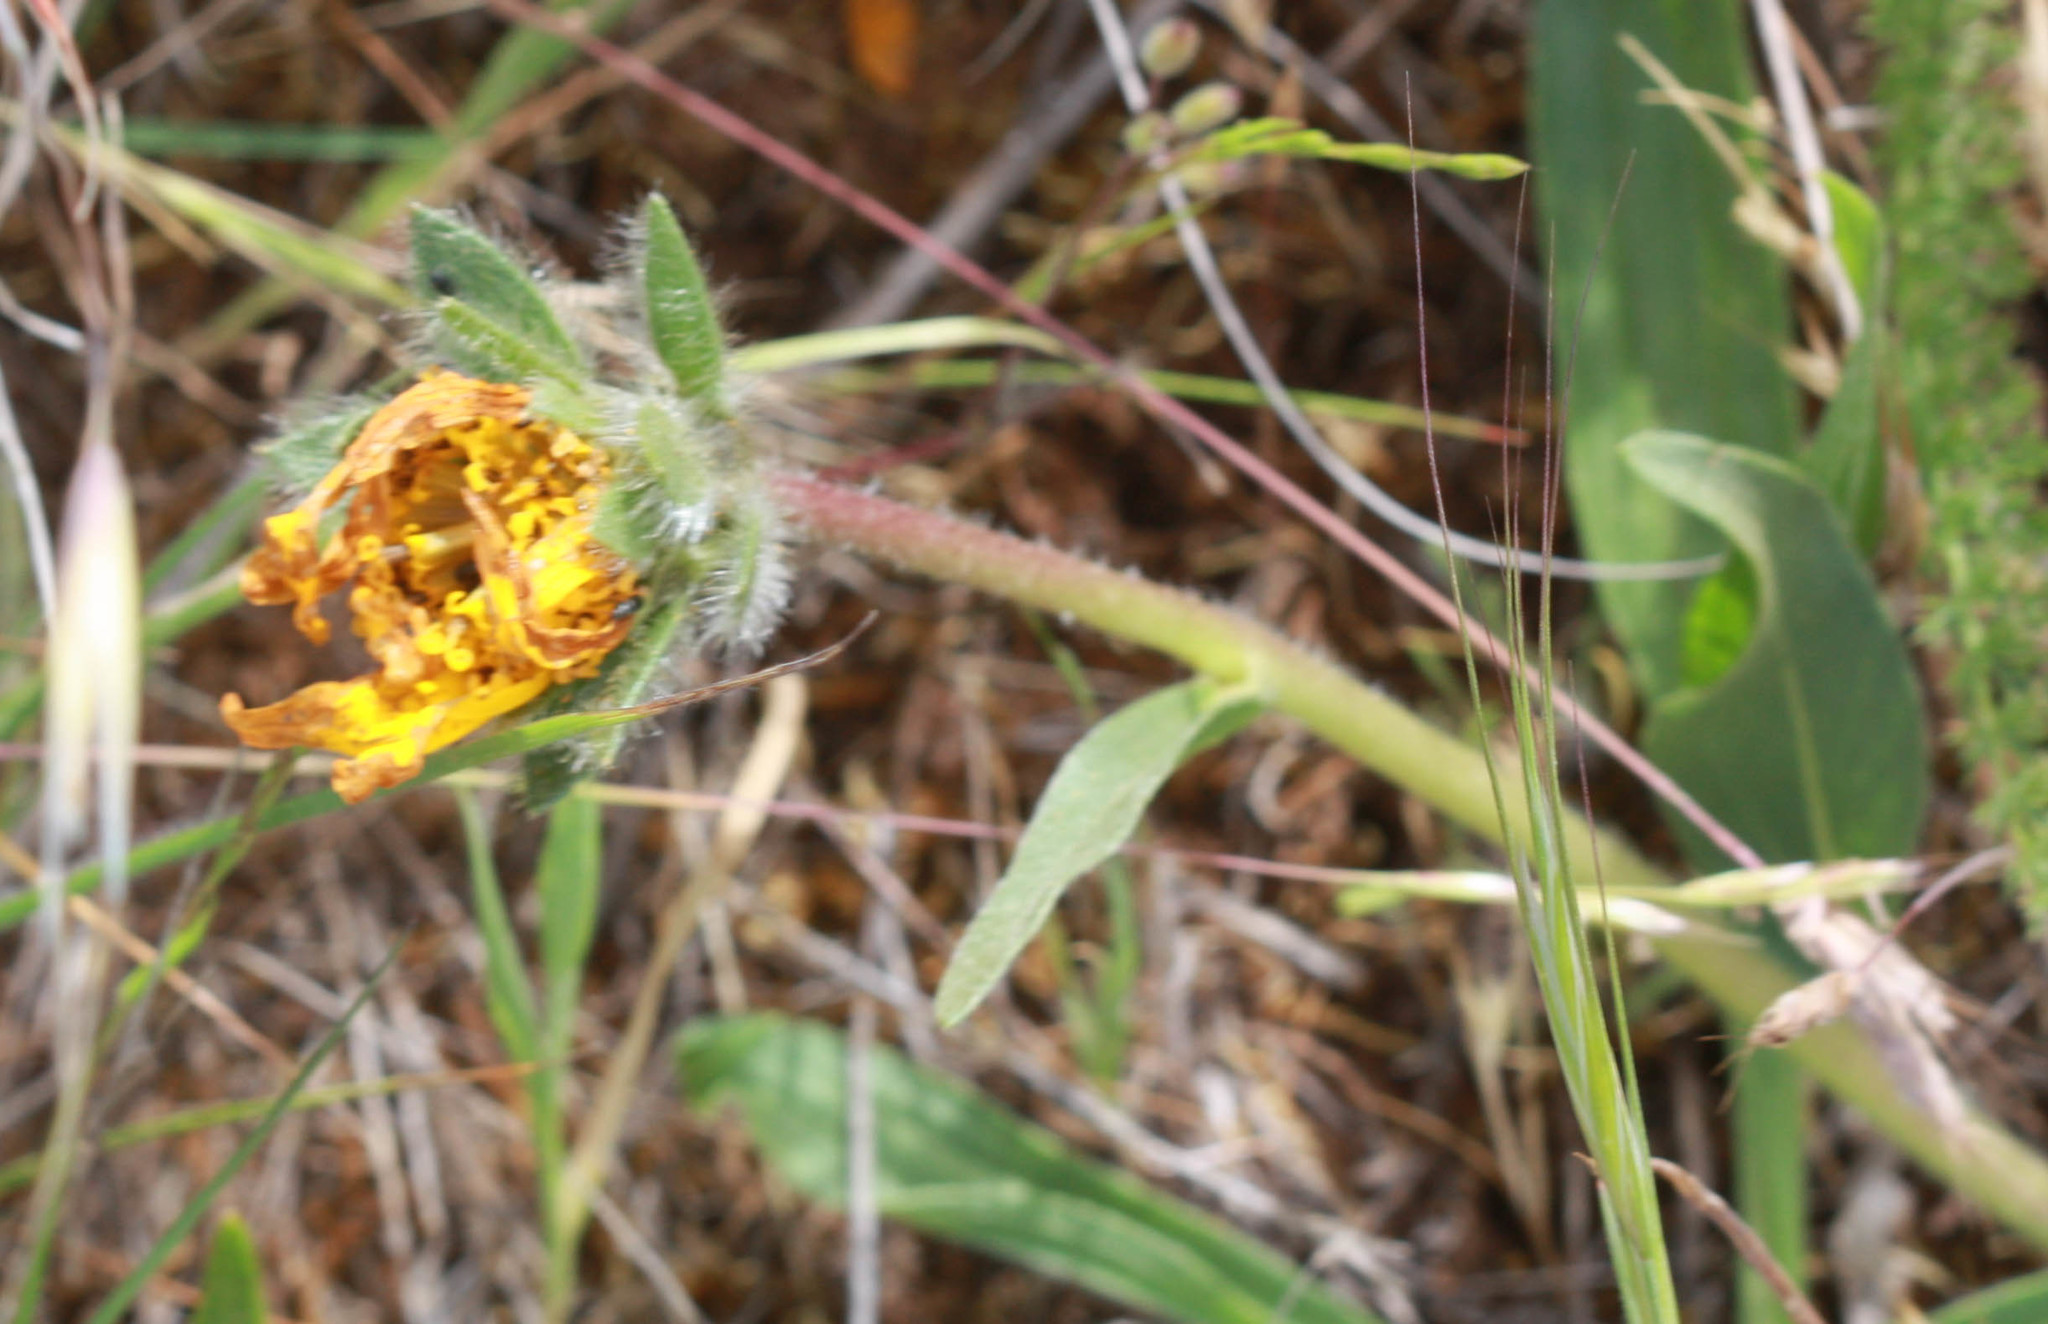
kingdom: Plantae
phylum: Tracheophyta
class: Magnoliopsida
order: Asterales
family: Asteraceae
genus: Wyethia
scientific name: Wyethia angustifolia
